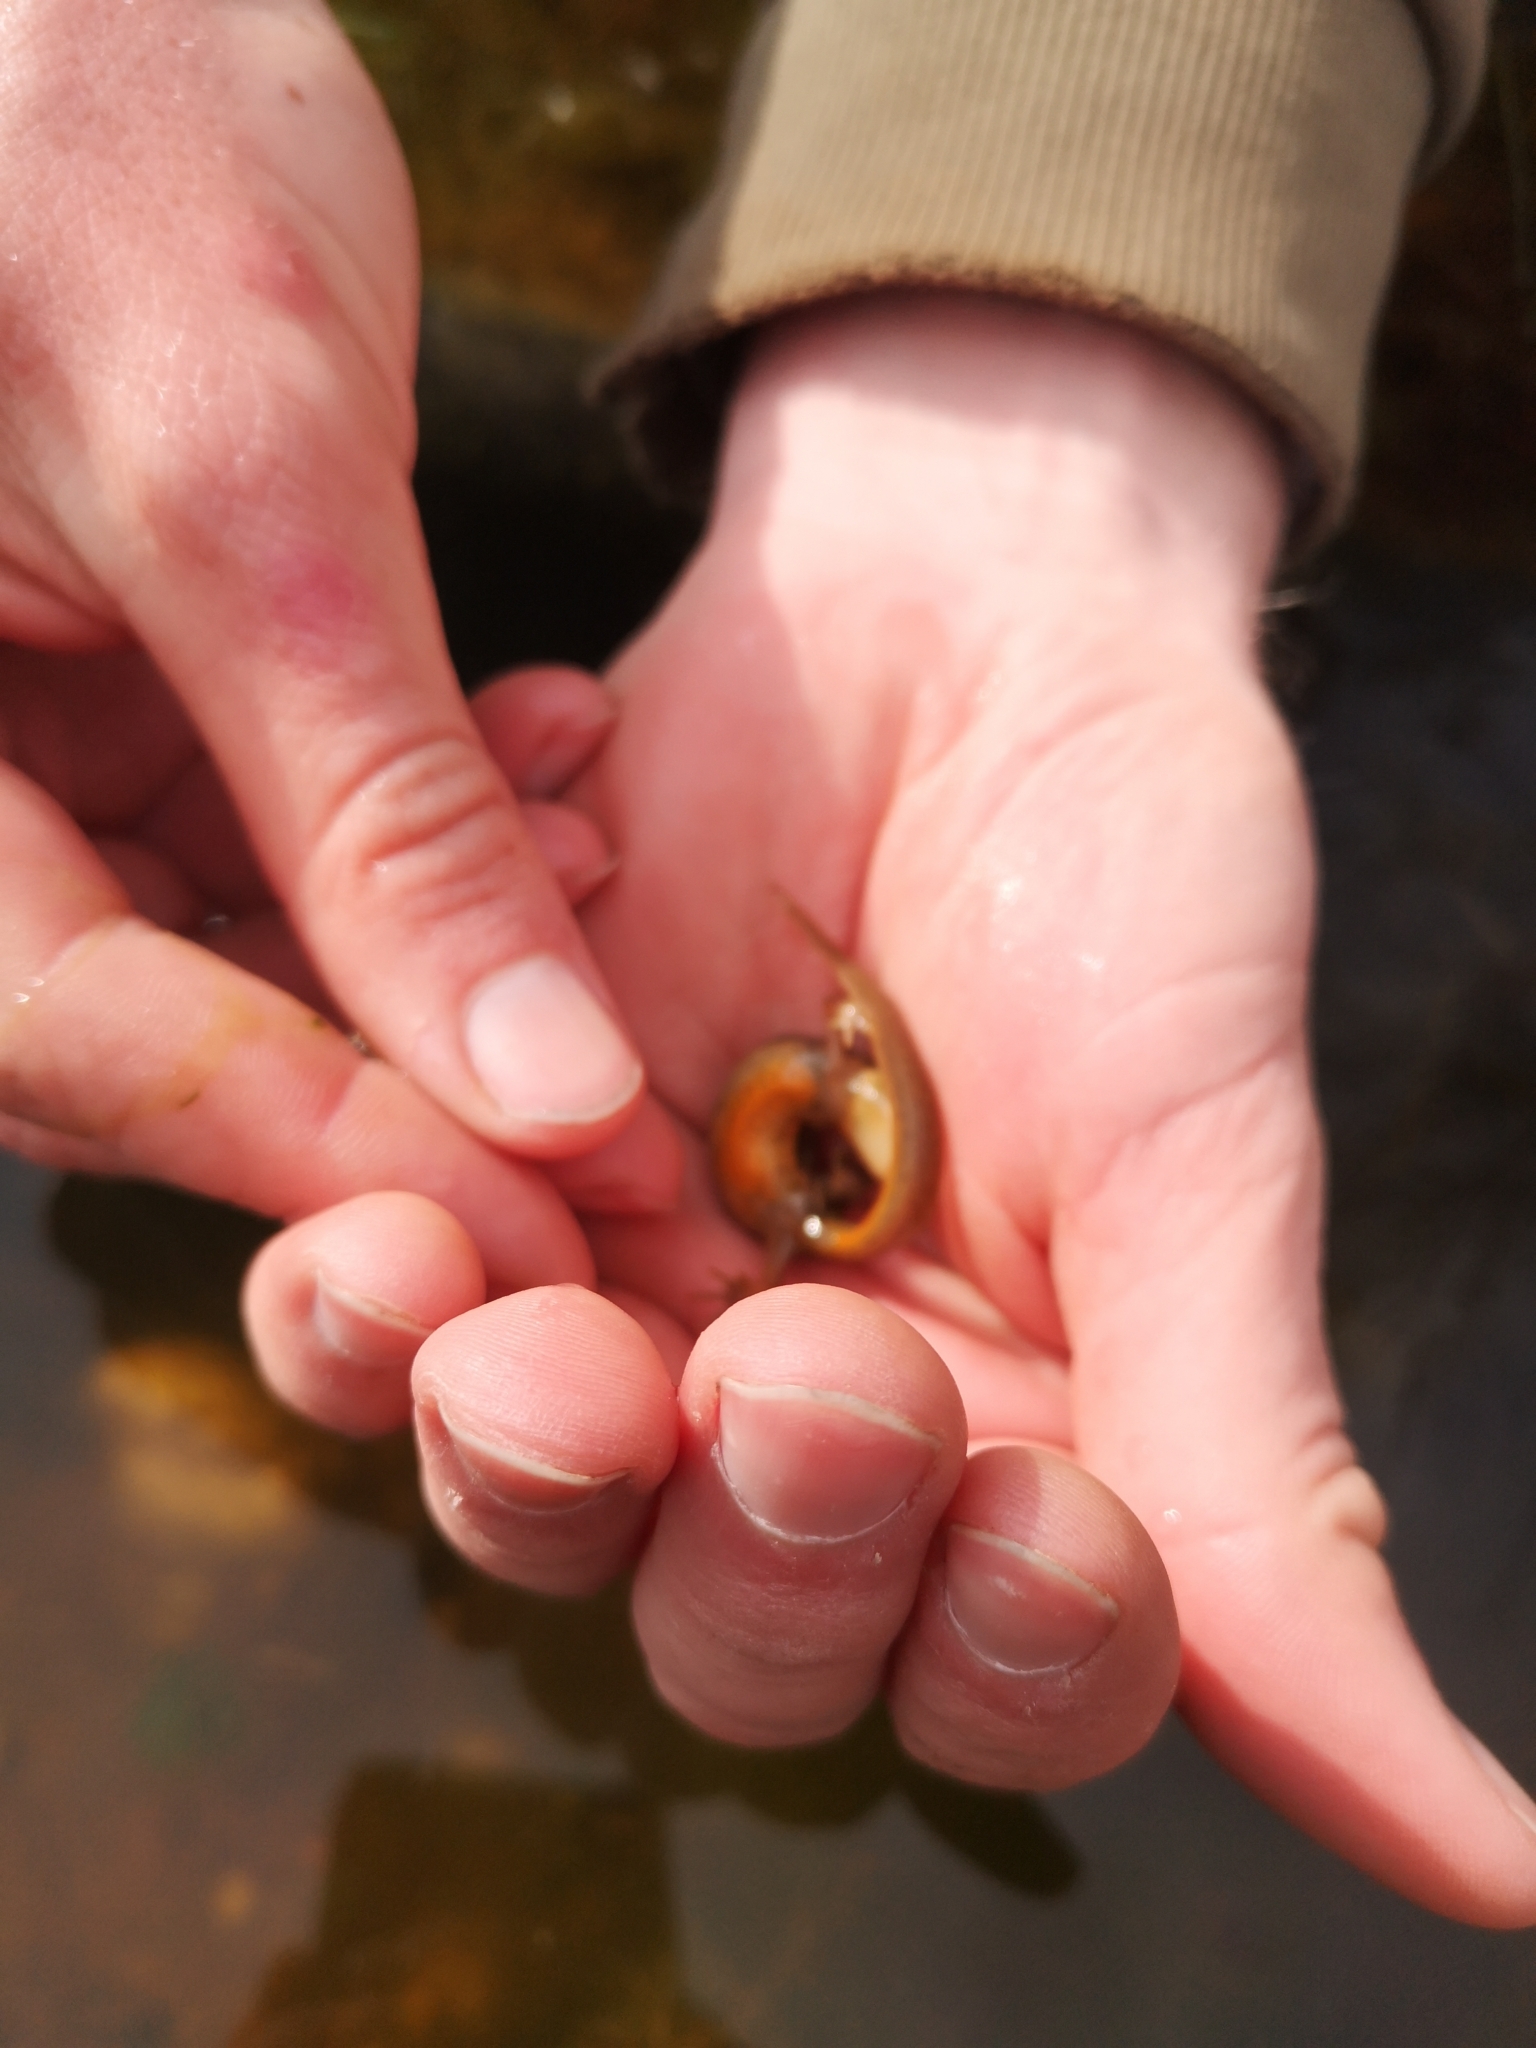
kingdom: Animalia
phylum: Chordata
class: Amphibia
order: Caudata
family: Salamandridae
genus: Lissotriton
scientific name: Lissotriton vulgaris
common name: Smooth newt
